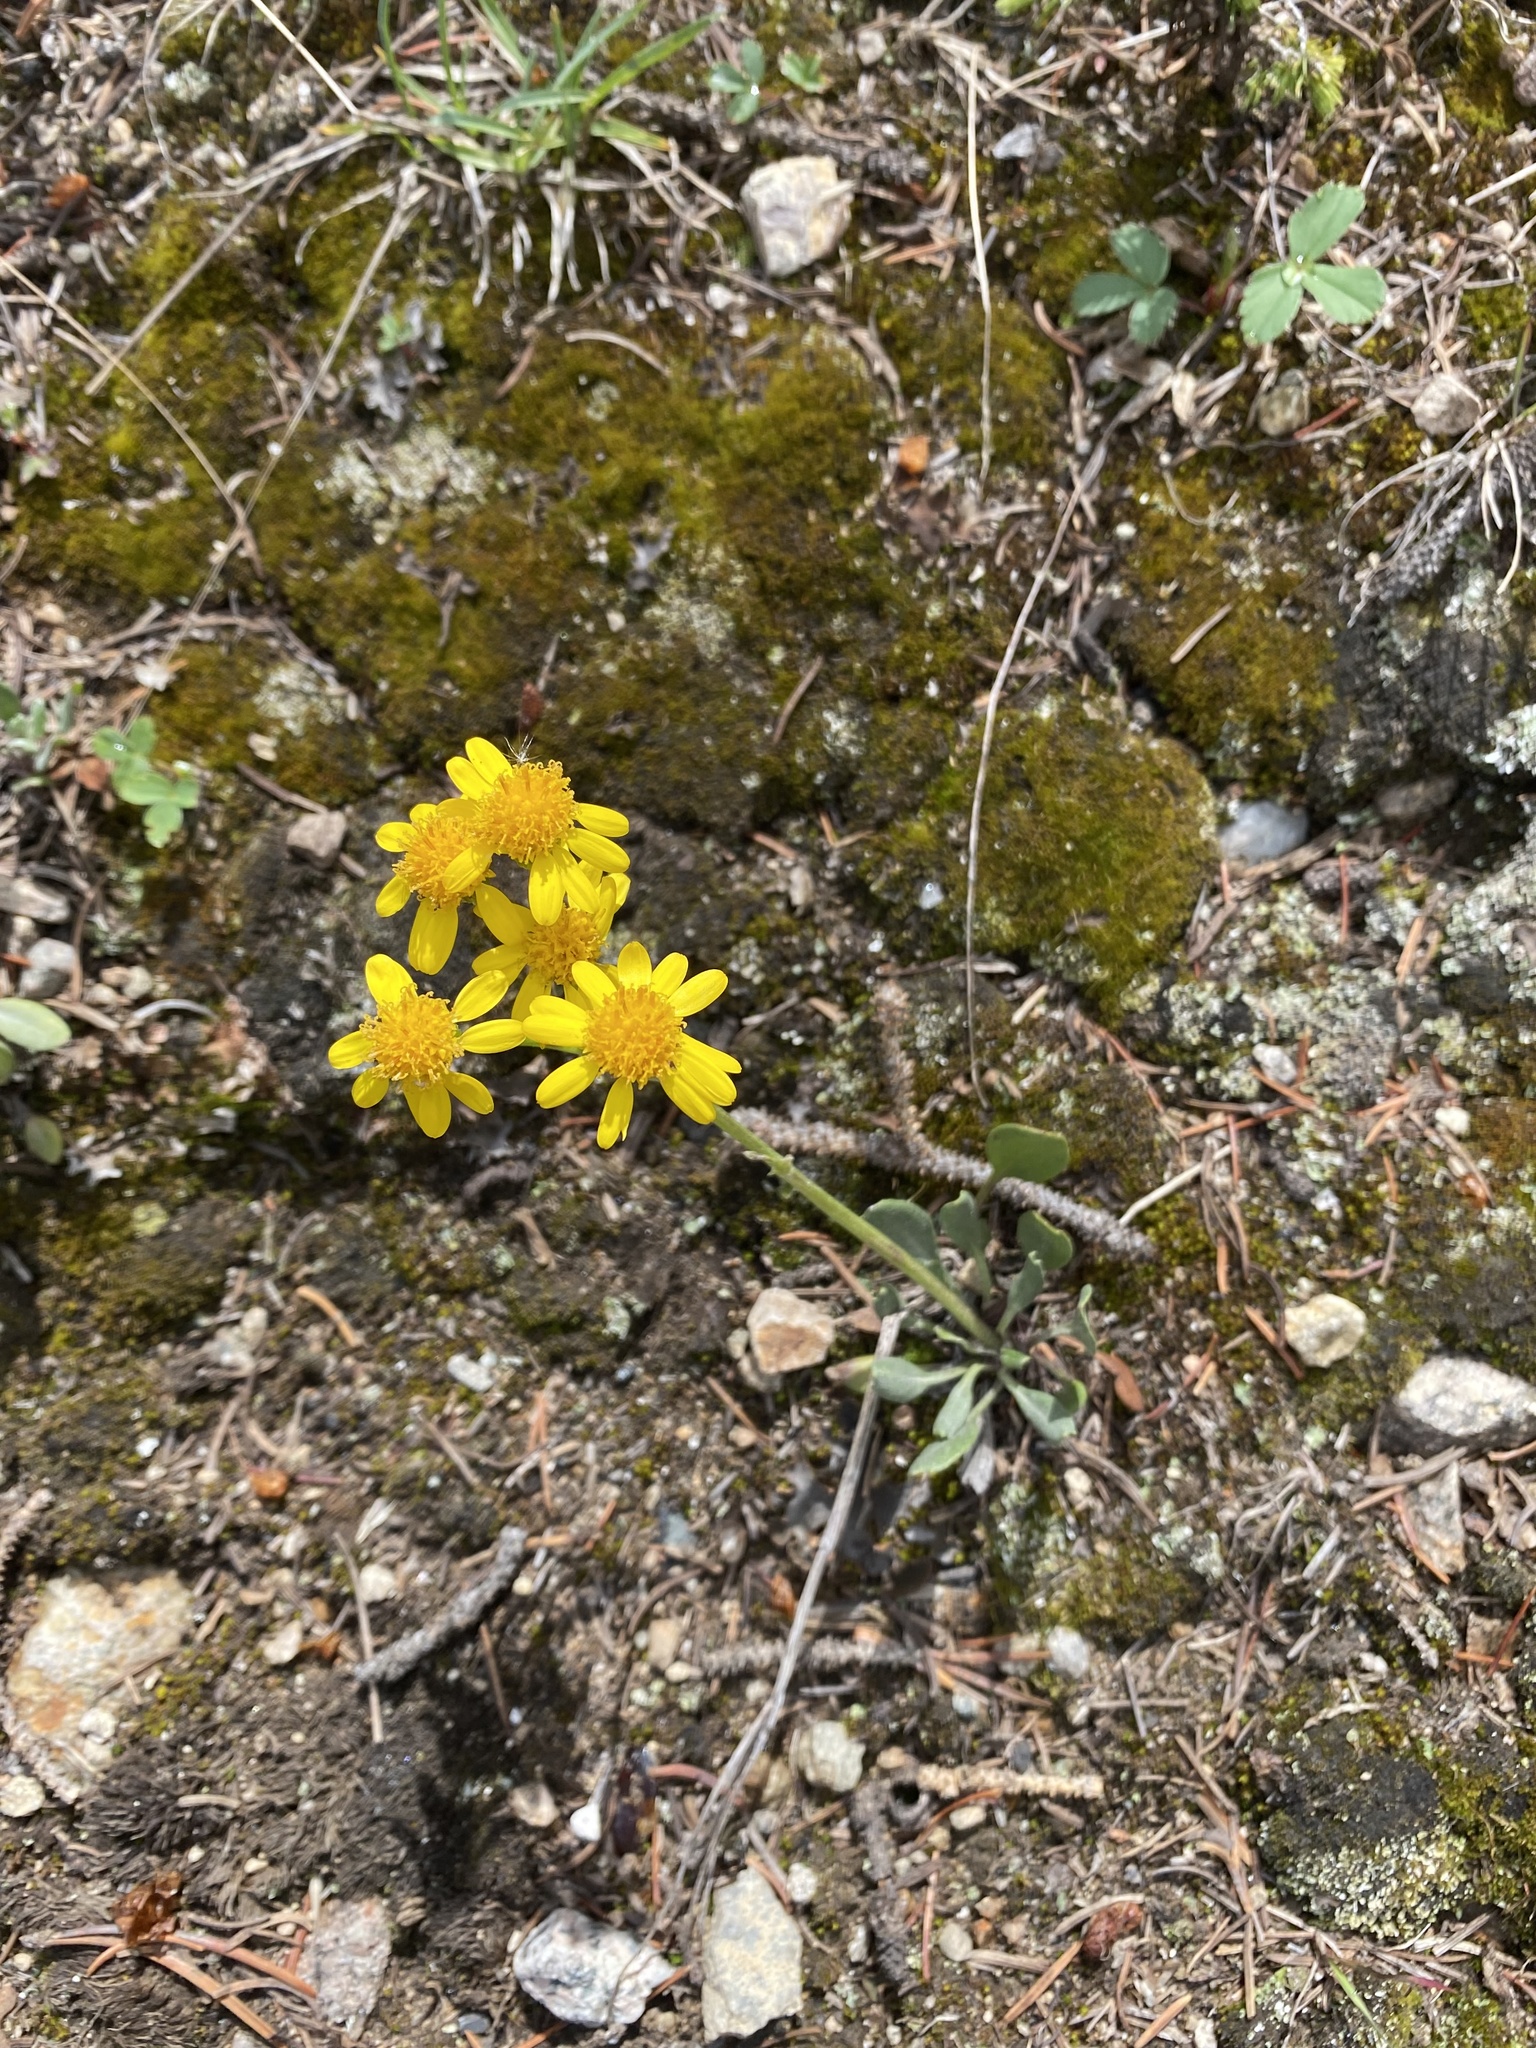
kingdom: Plantae
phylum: Tracheophyta
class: Magnoliopsida
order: Asterales
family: Asteraceae
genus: Packera
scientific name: Packera werneriifolia
